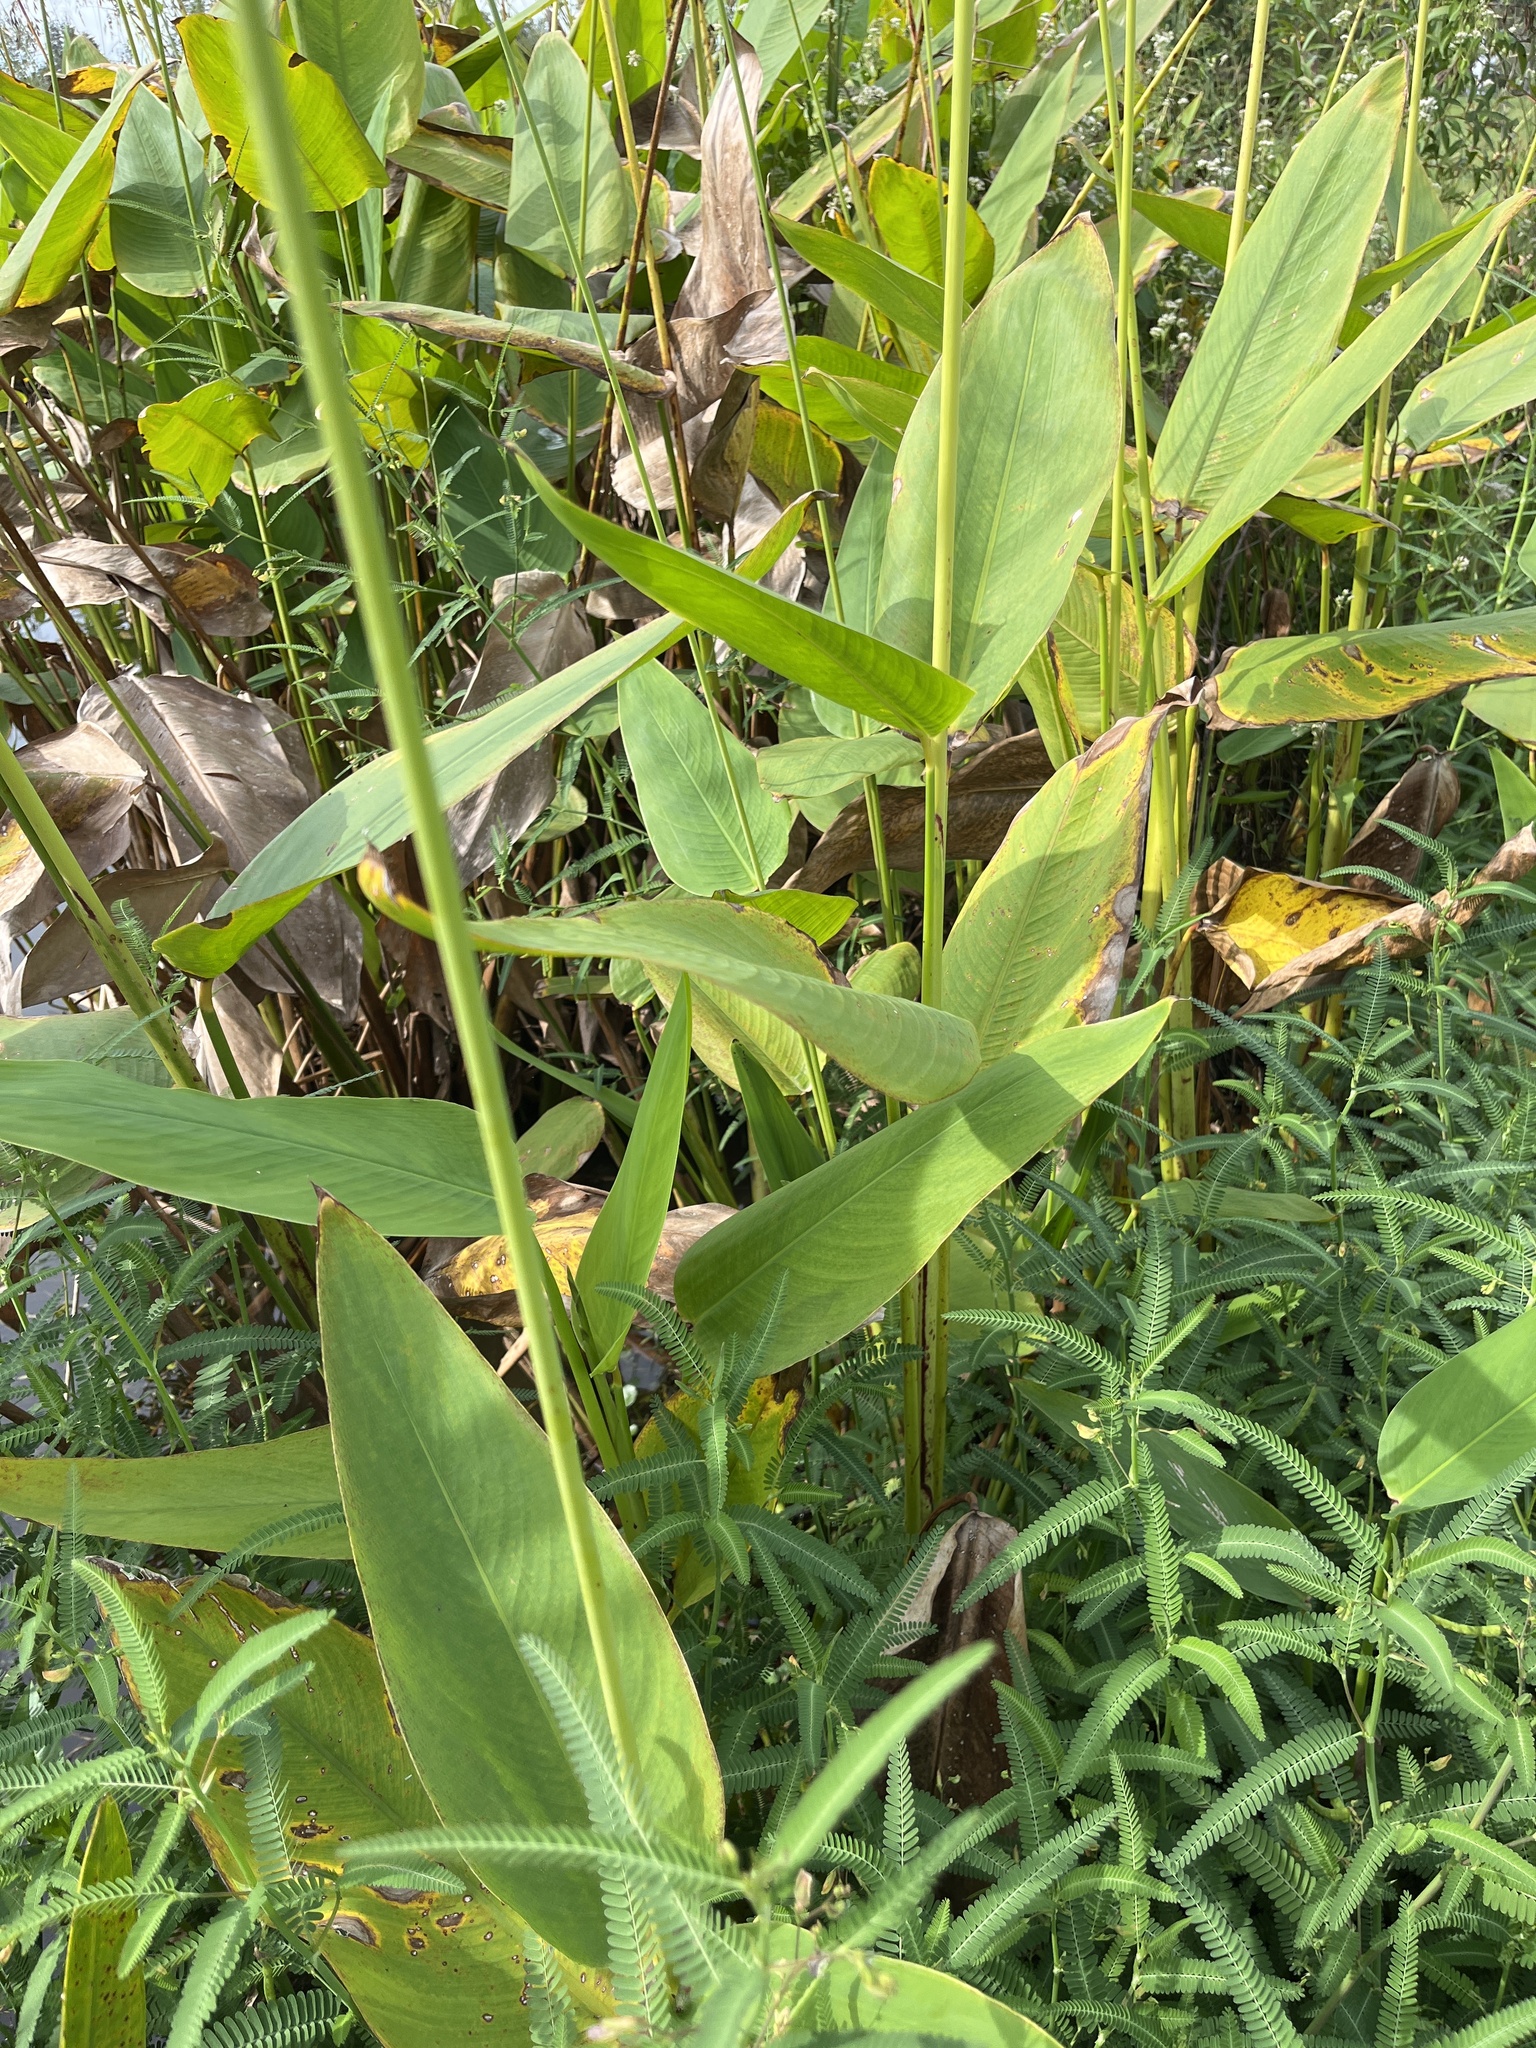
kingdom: Plantae
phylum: Tracheophyta
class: Liliopsida
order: Zingiberales
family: Marantaceae
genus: Thalia
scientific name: Thalia geniculata
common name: Arrowroot
